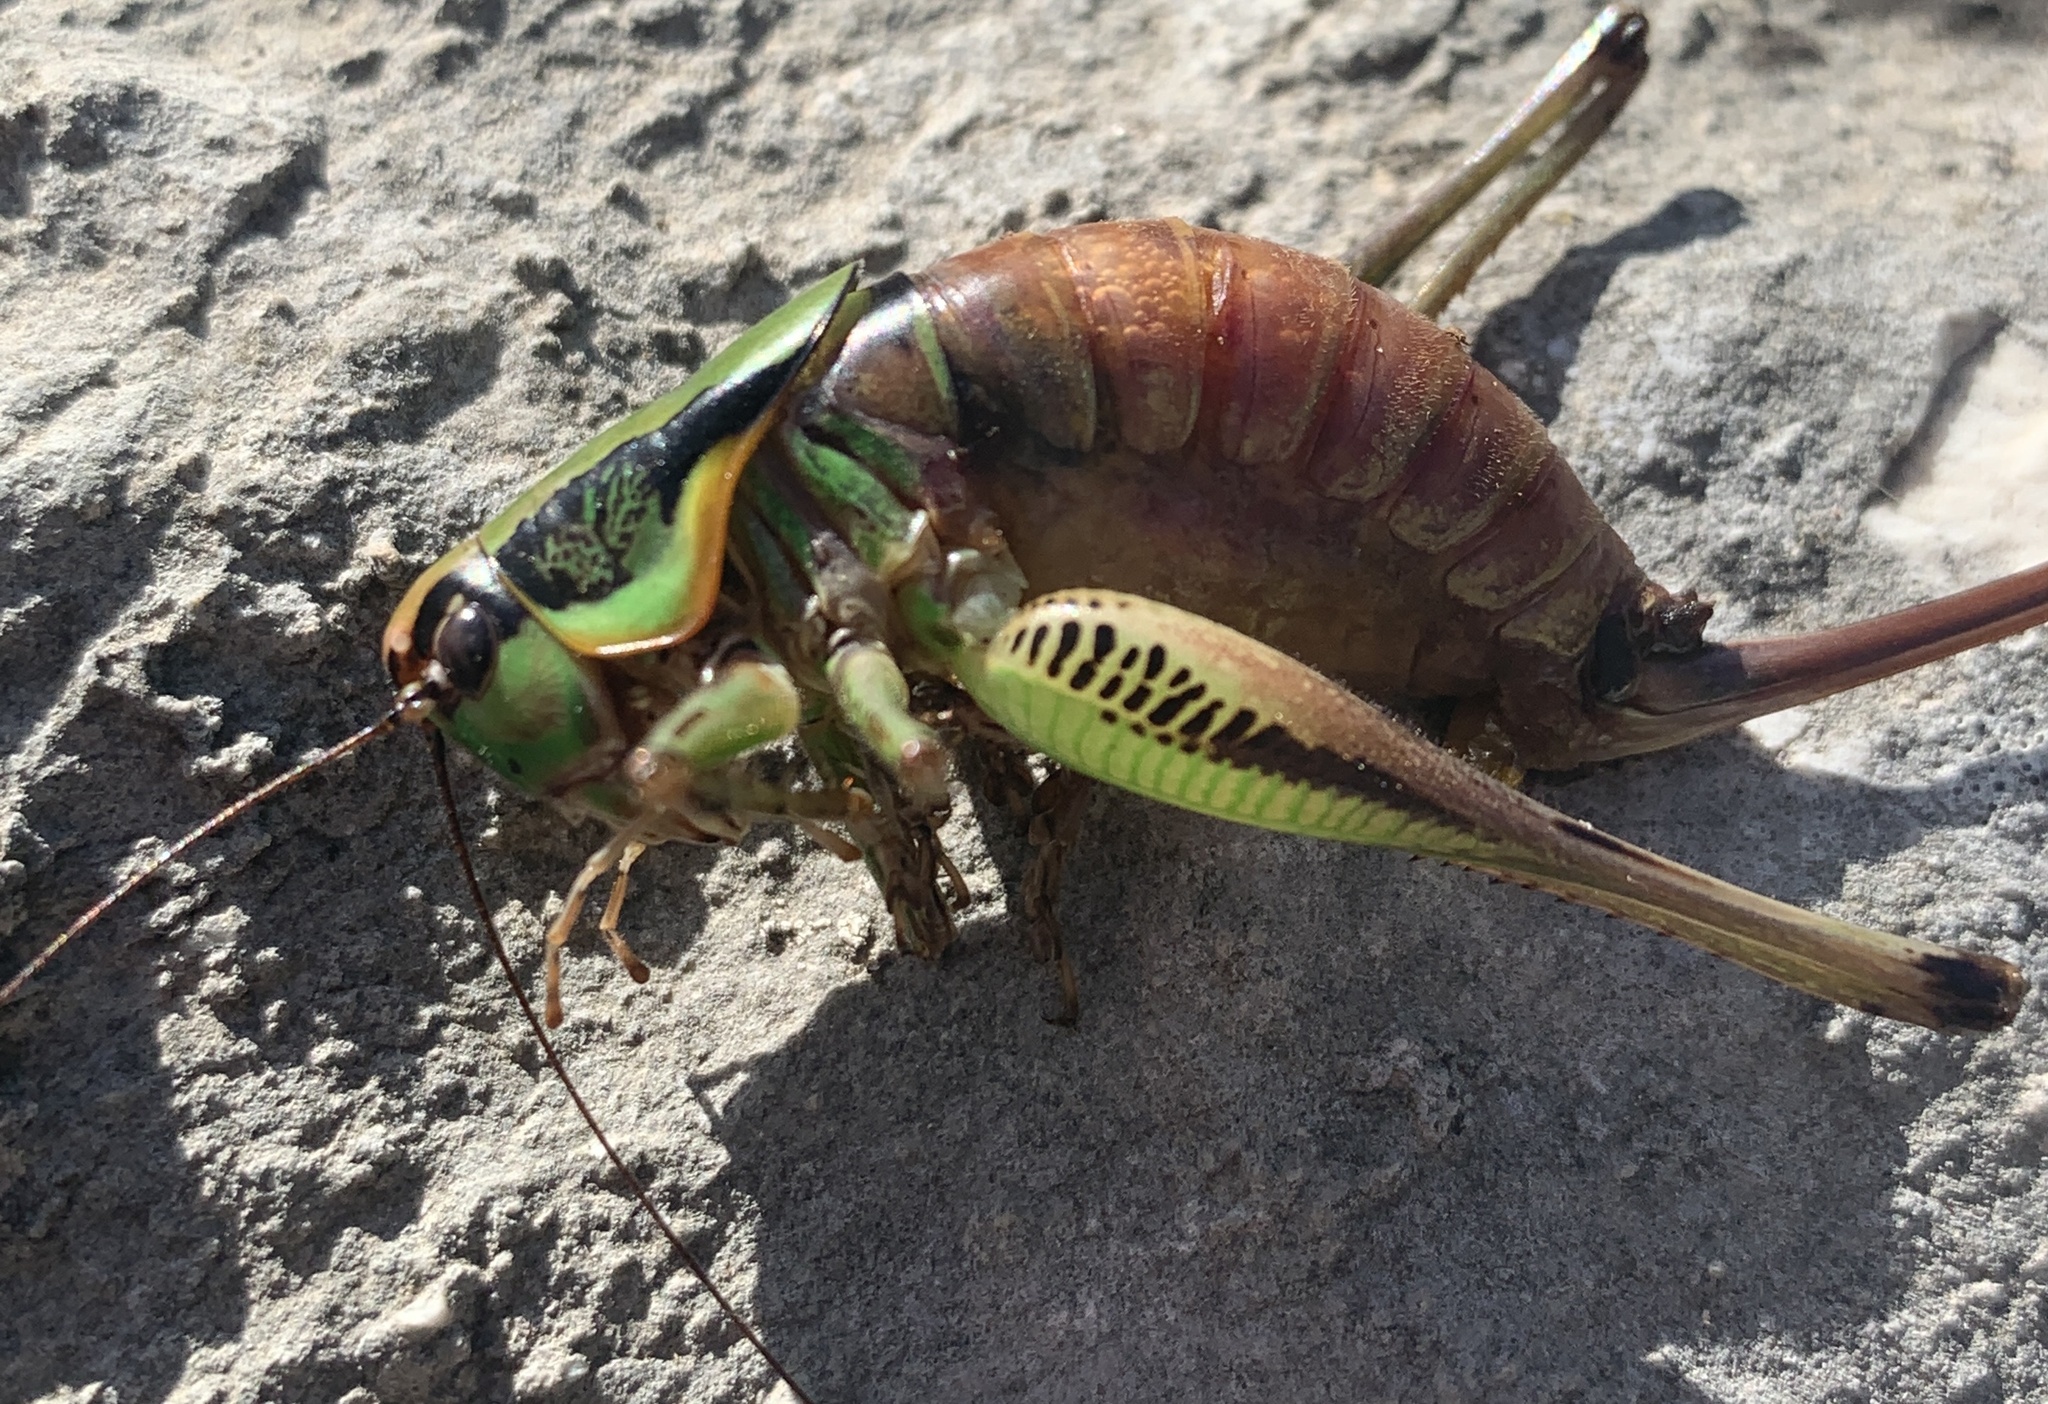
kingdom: Animalia
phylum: Arthropoda
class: Insecta
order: Orthoptera
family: Tettigoniidae
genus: Eupholidoptera
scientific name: Eupholidoptera schmidti
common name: Schmidt's marbled bush-cricket
